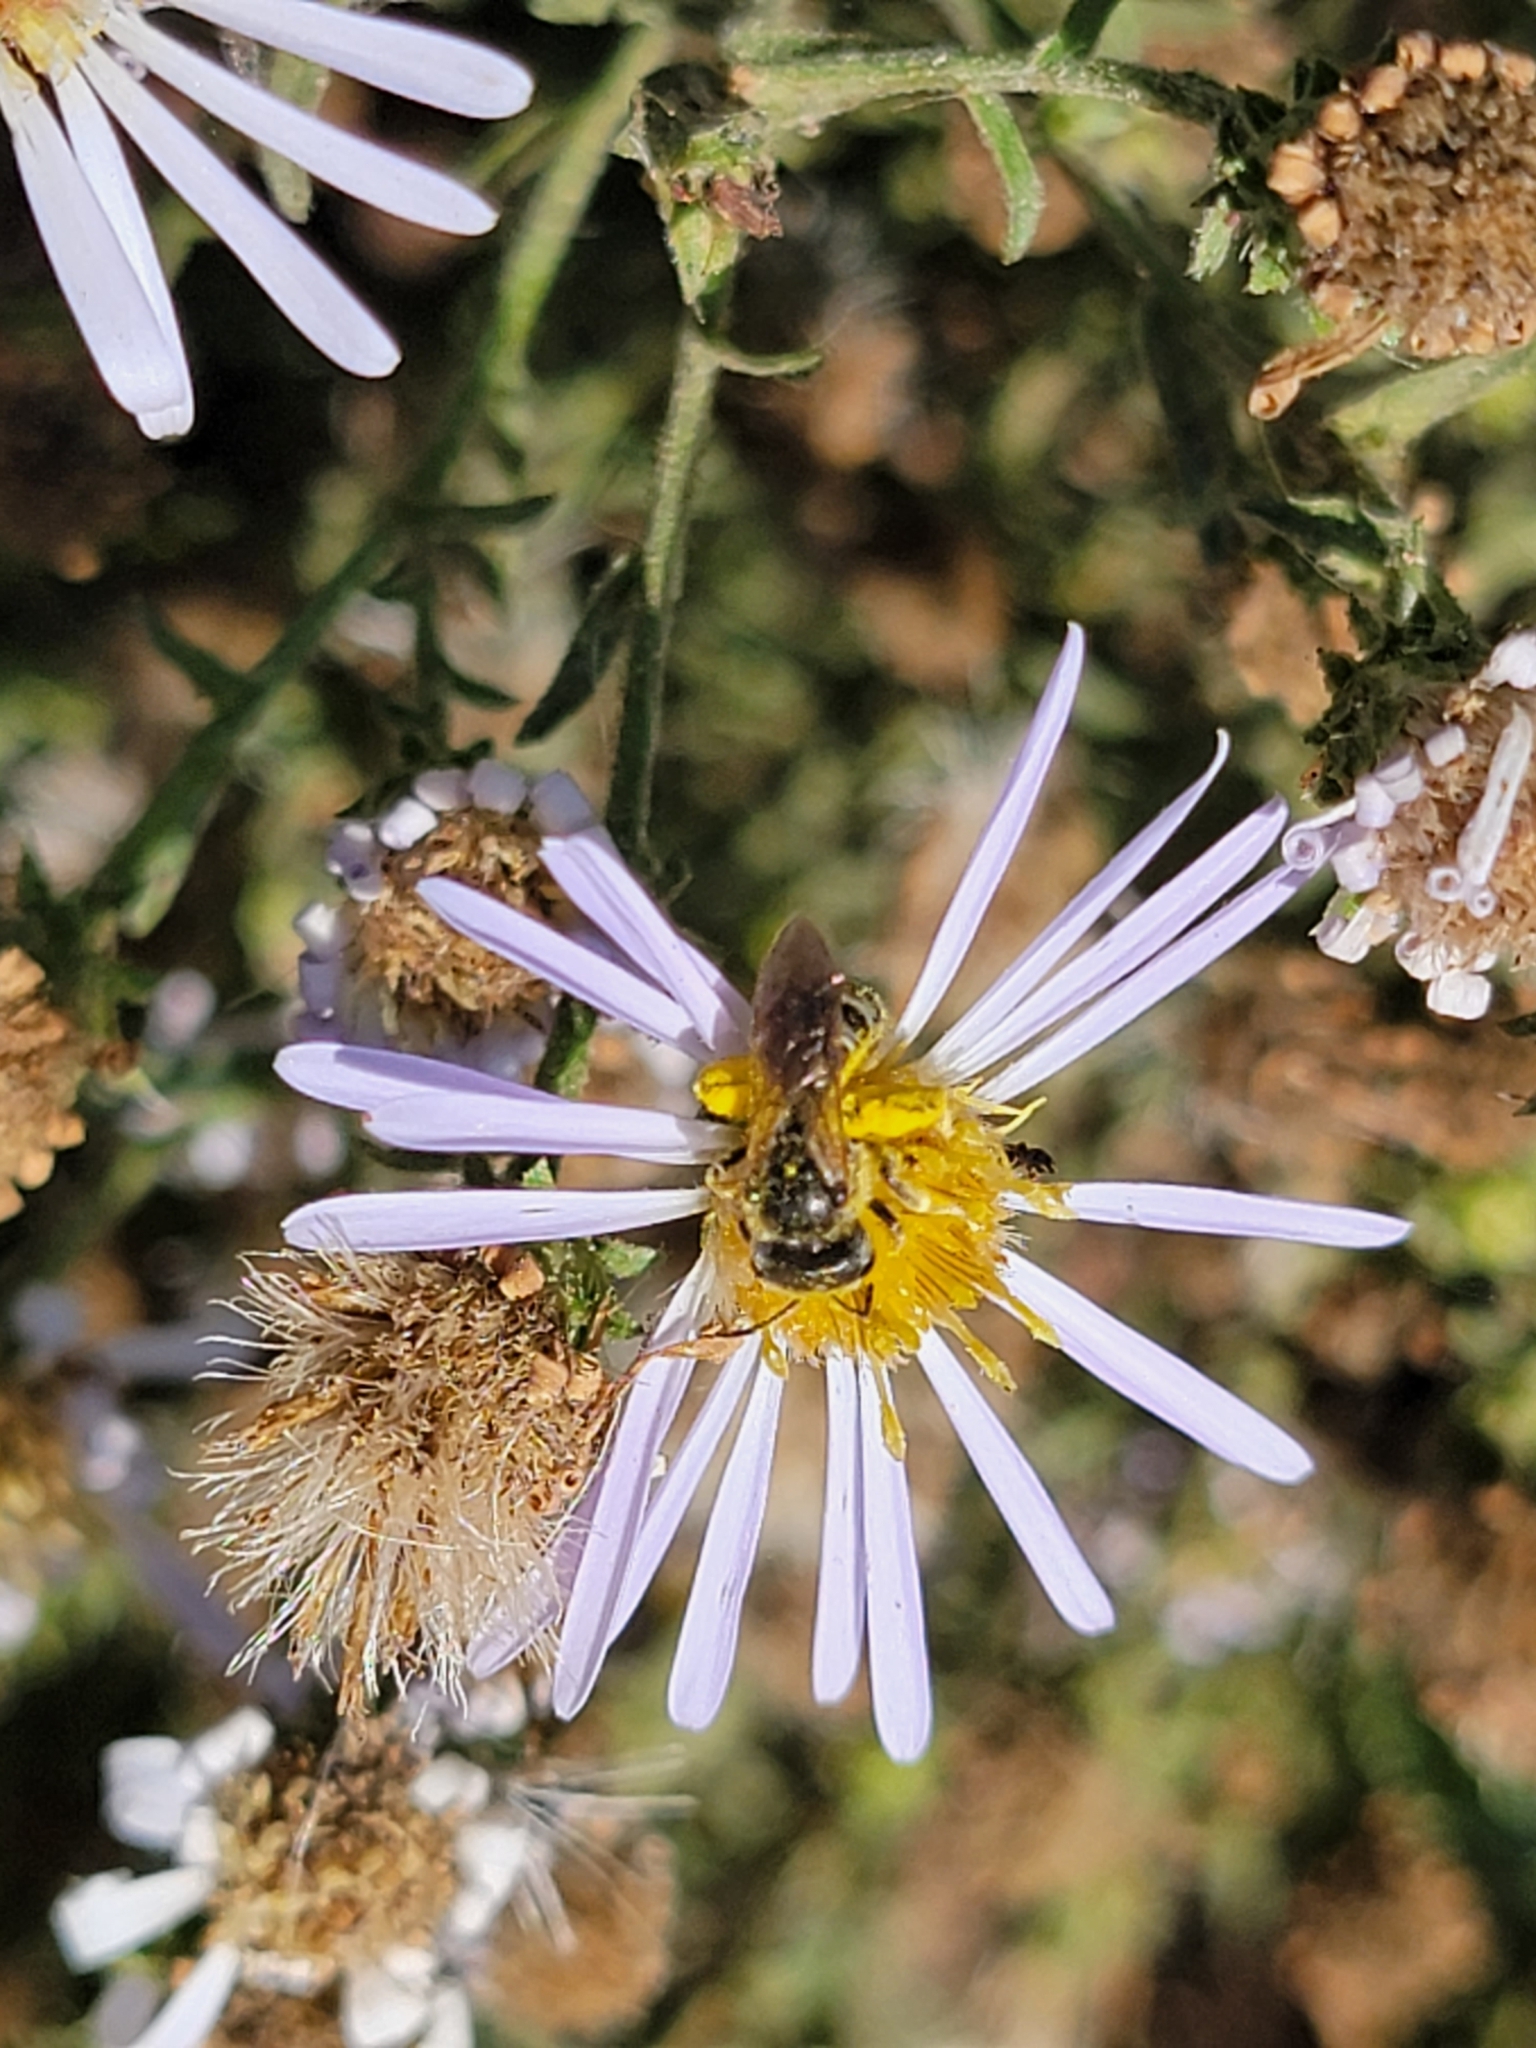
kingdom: Animalia
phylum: Arthropoda
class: Insecta
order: Hymenoptera
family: Halictidae
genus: Halictus
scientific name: Halictus ligatus
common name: Ligated furrow bee
